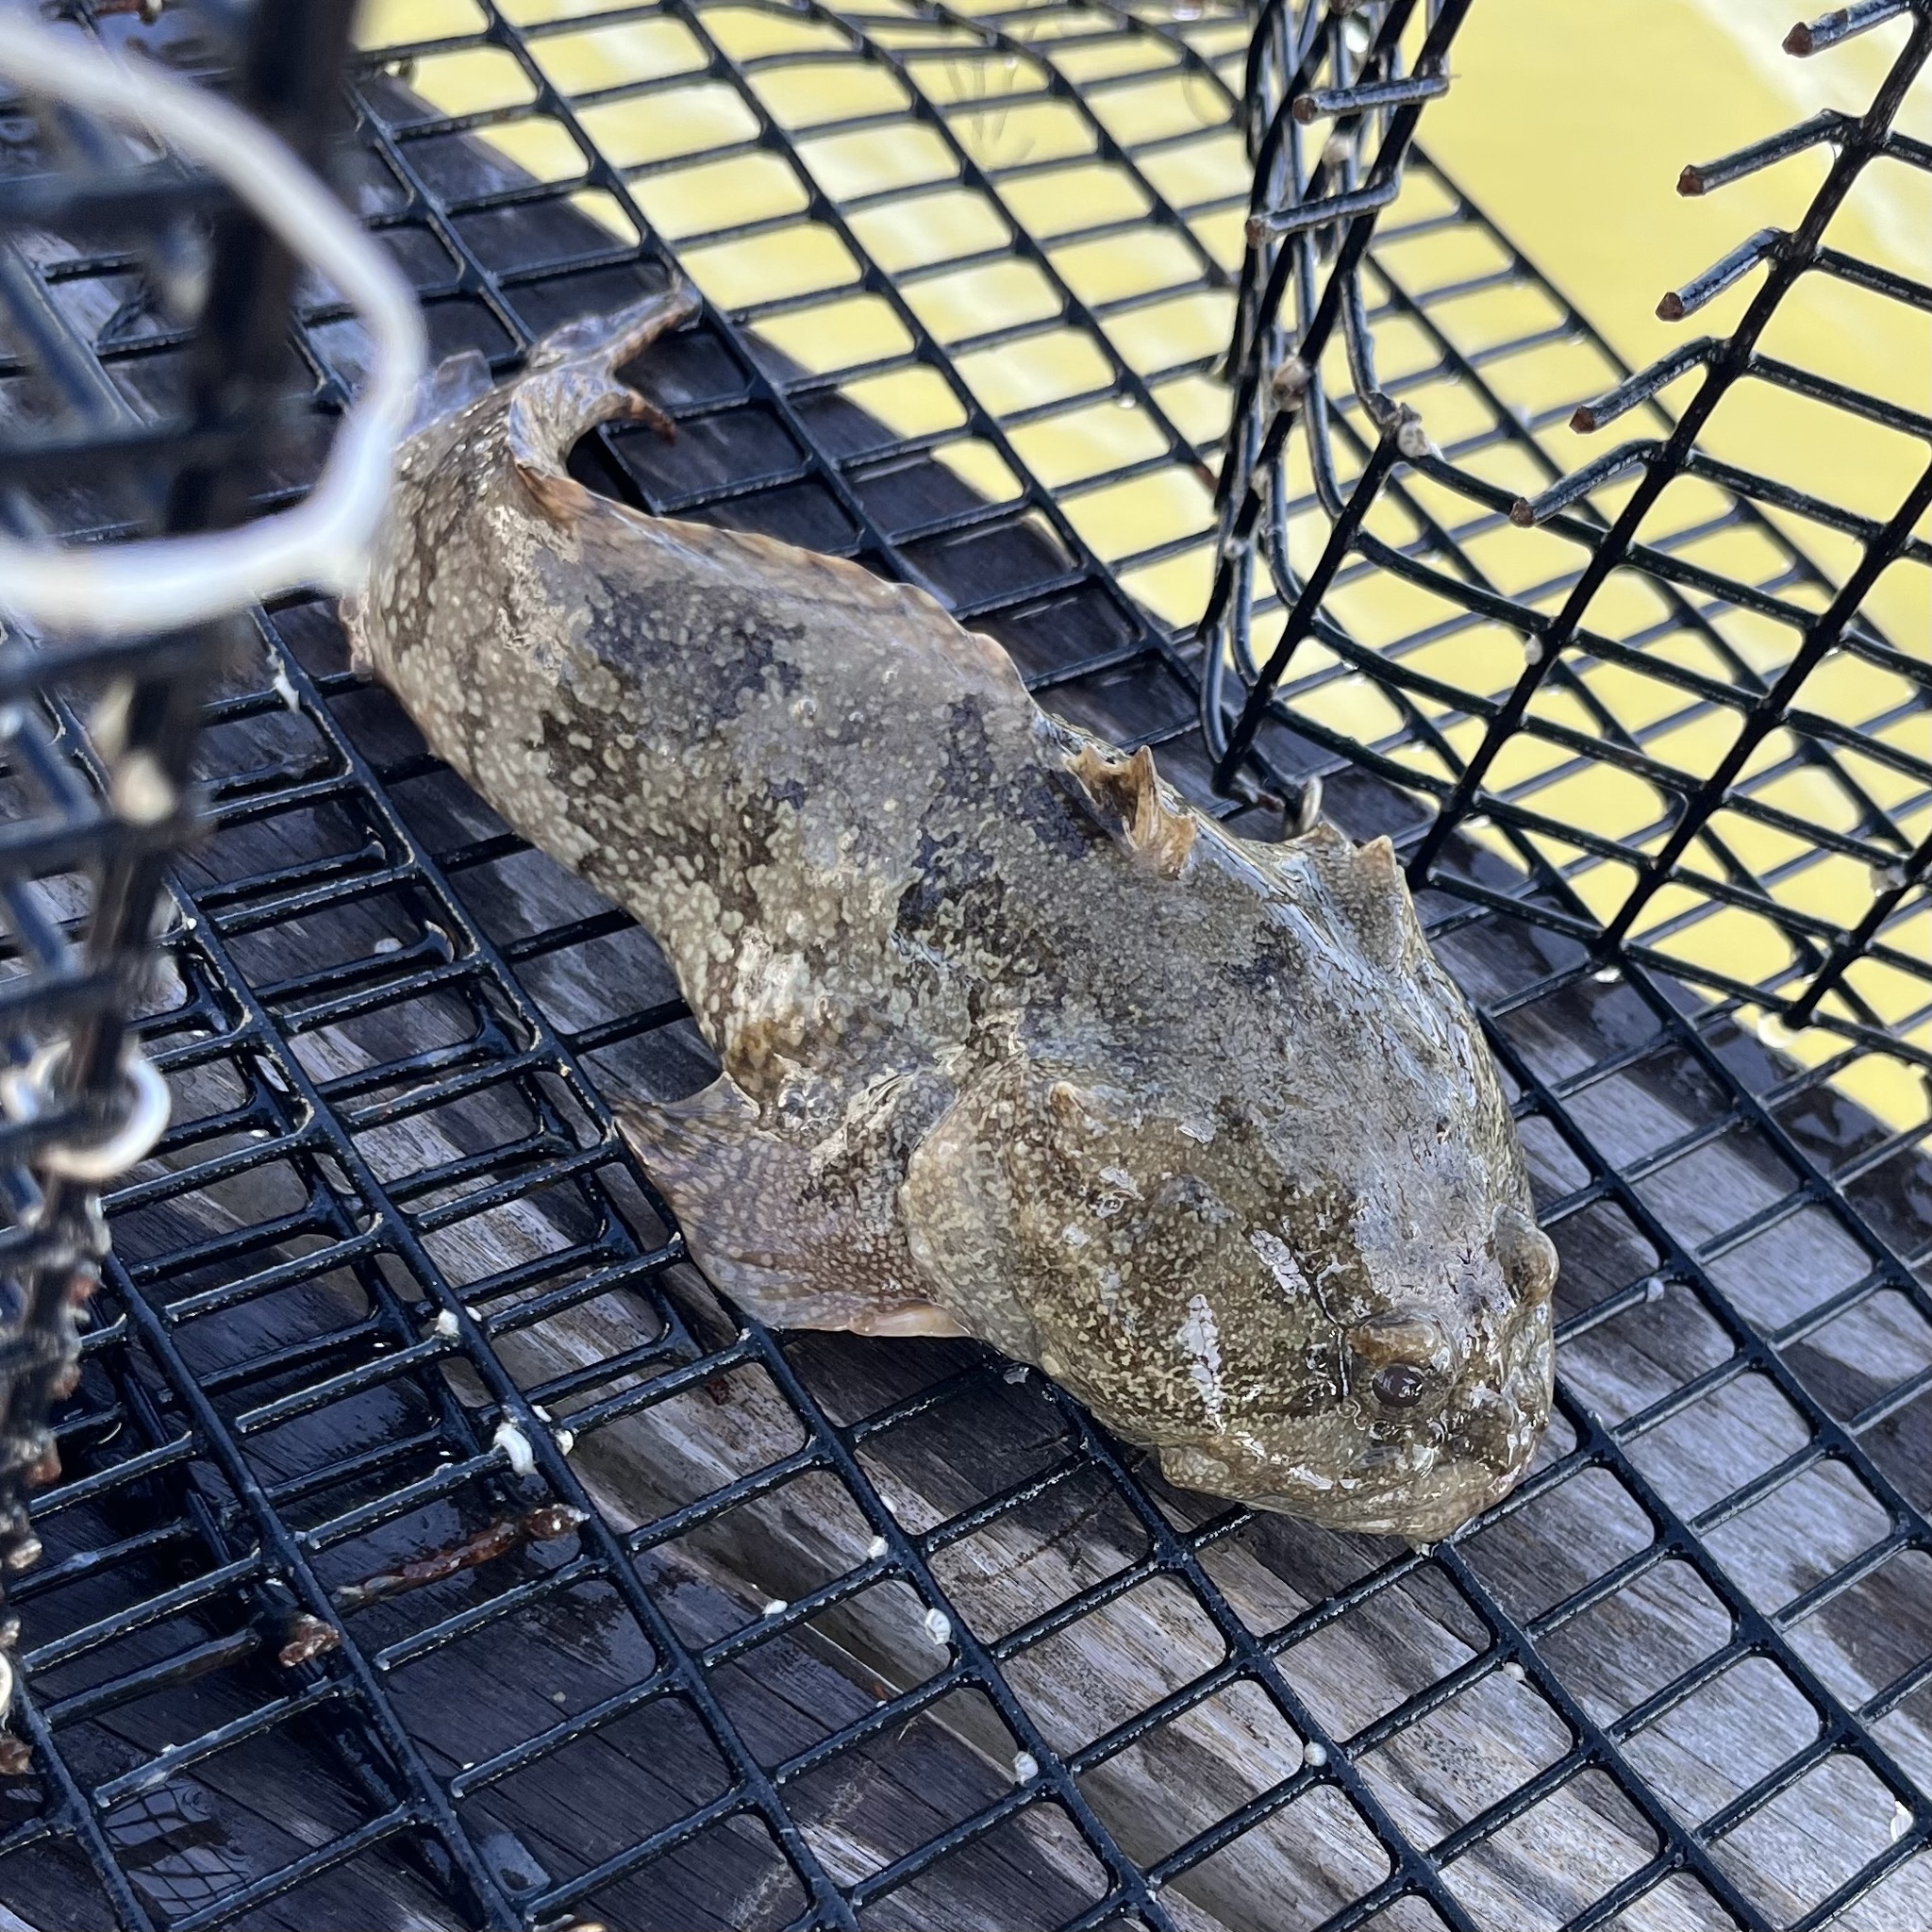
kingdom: Animalia
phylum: Chordata
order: Batrachoidiformes
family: Batrachoididae
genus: Opsanus
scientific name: Opsanus beta
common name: Gulf toadfish
